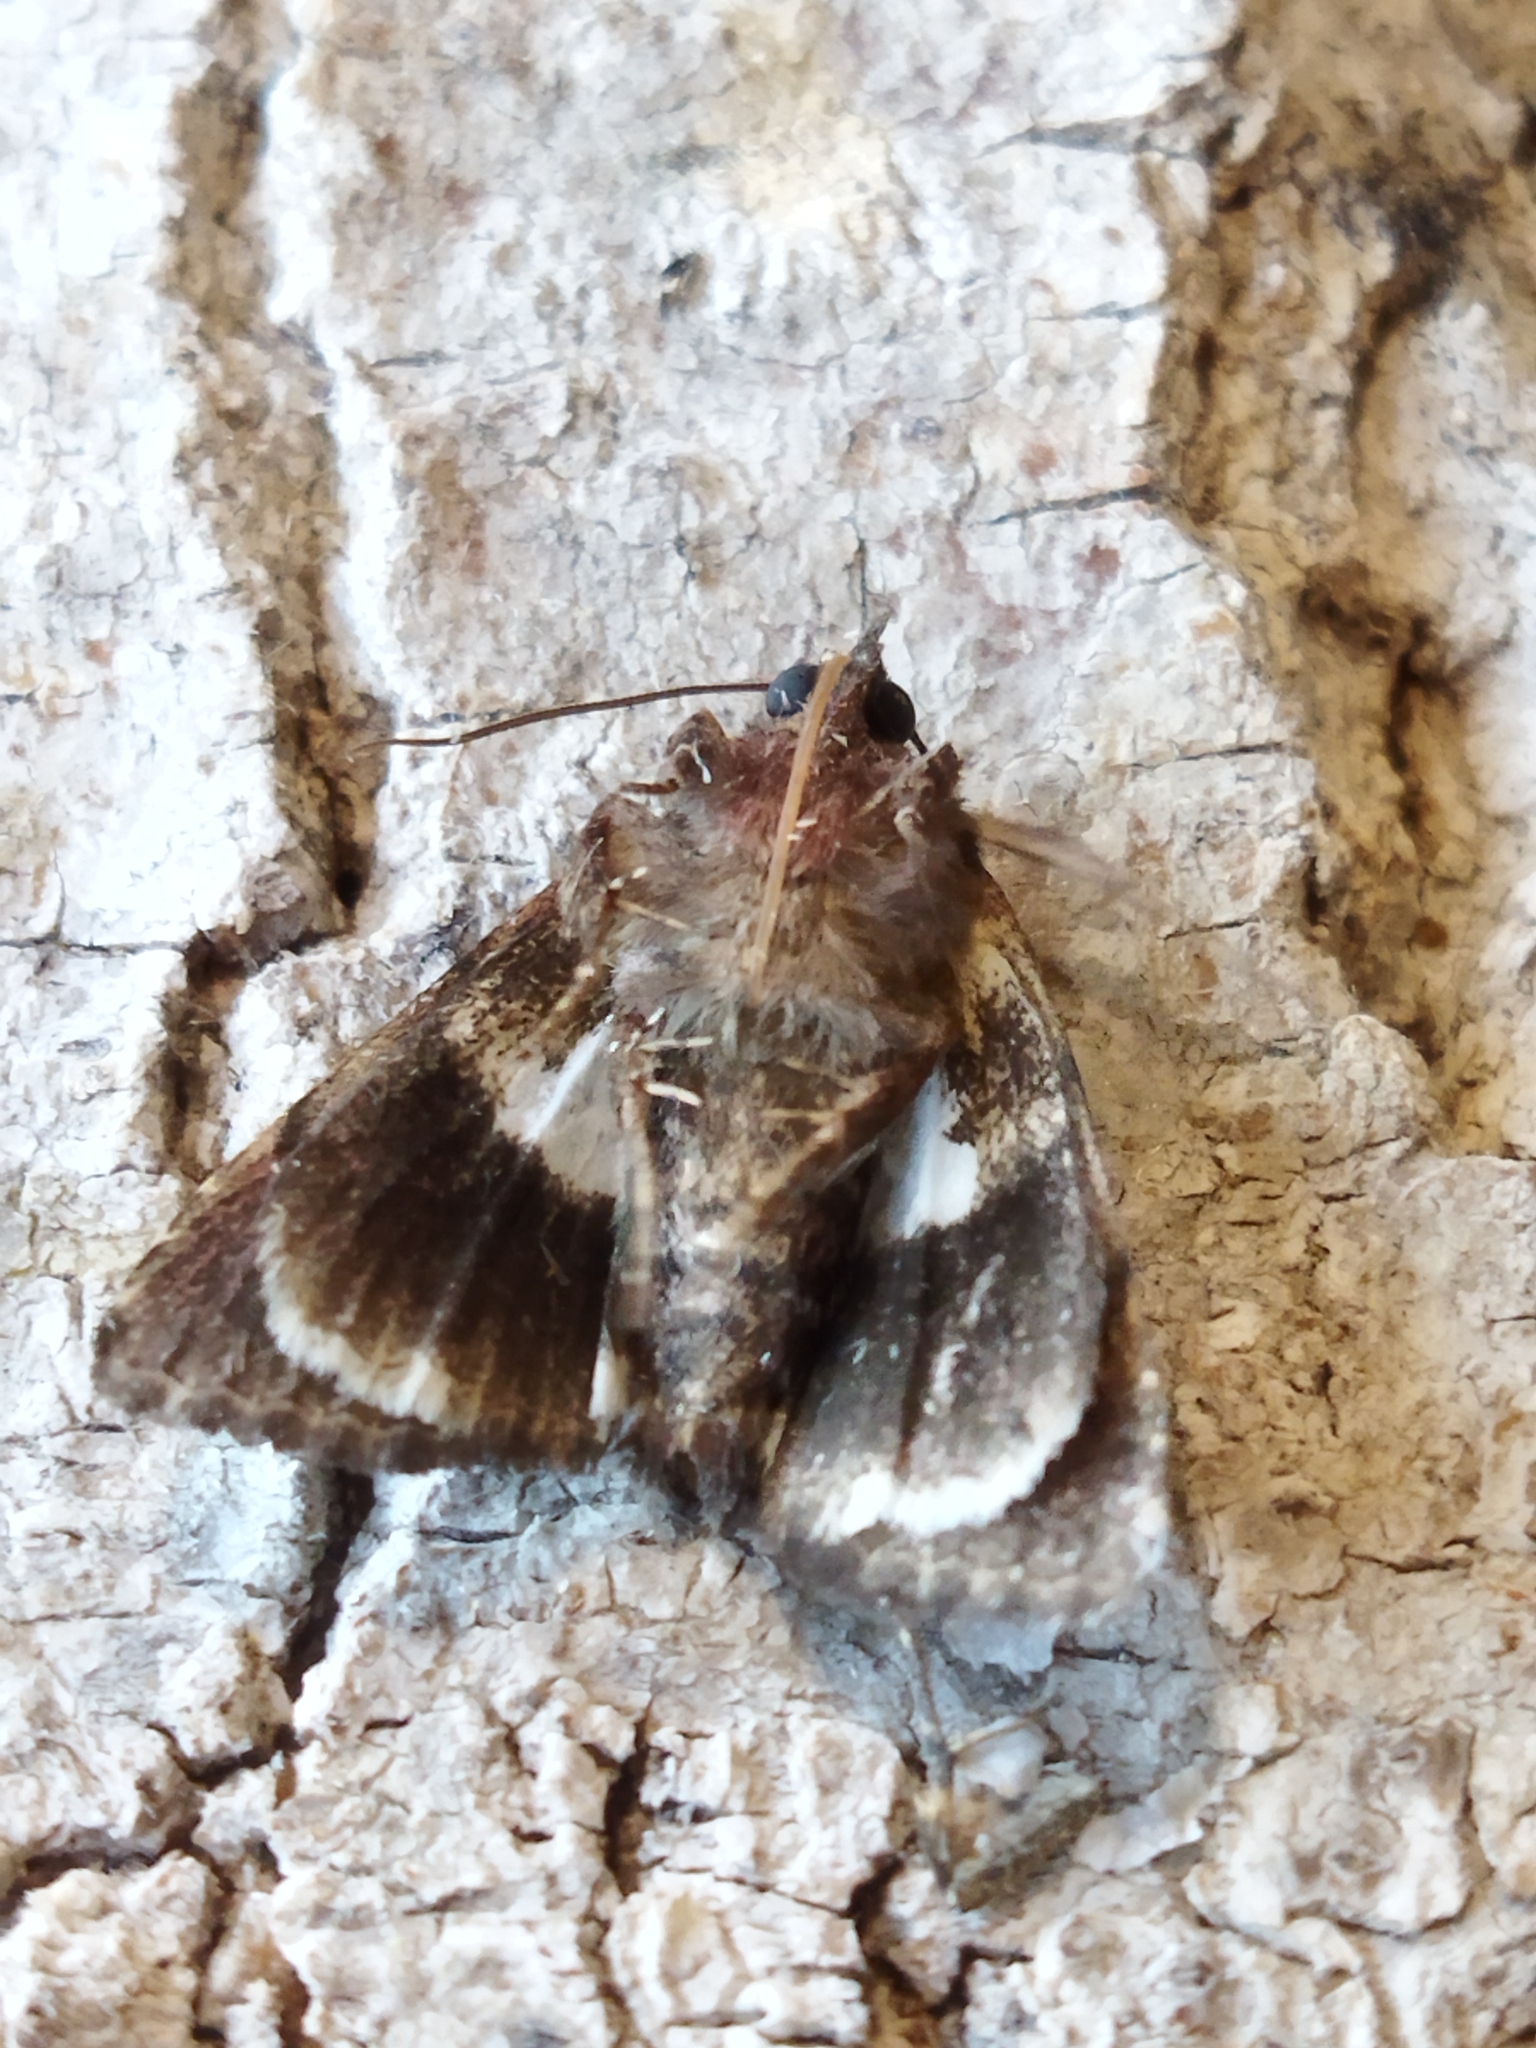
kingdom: Animalia
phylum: Arthropoda
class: Insecta
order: Lepidoptera
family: Noctuidae
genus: Aedia
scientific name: Aedia funesta
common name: The druid
